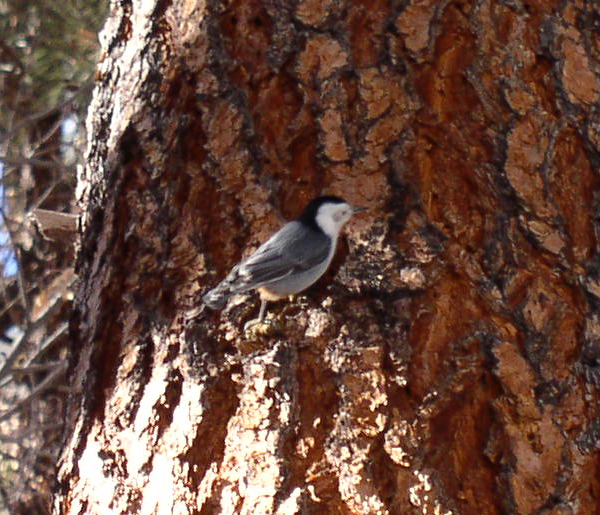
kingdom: Animalia
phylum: Chordata
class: Aves
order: Passeriformes
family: Sittidae
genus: Sitta
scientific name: Sitta carolinensis
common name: White-breasted nuthatch
